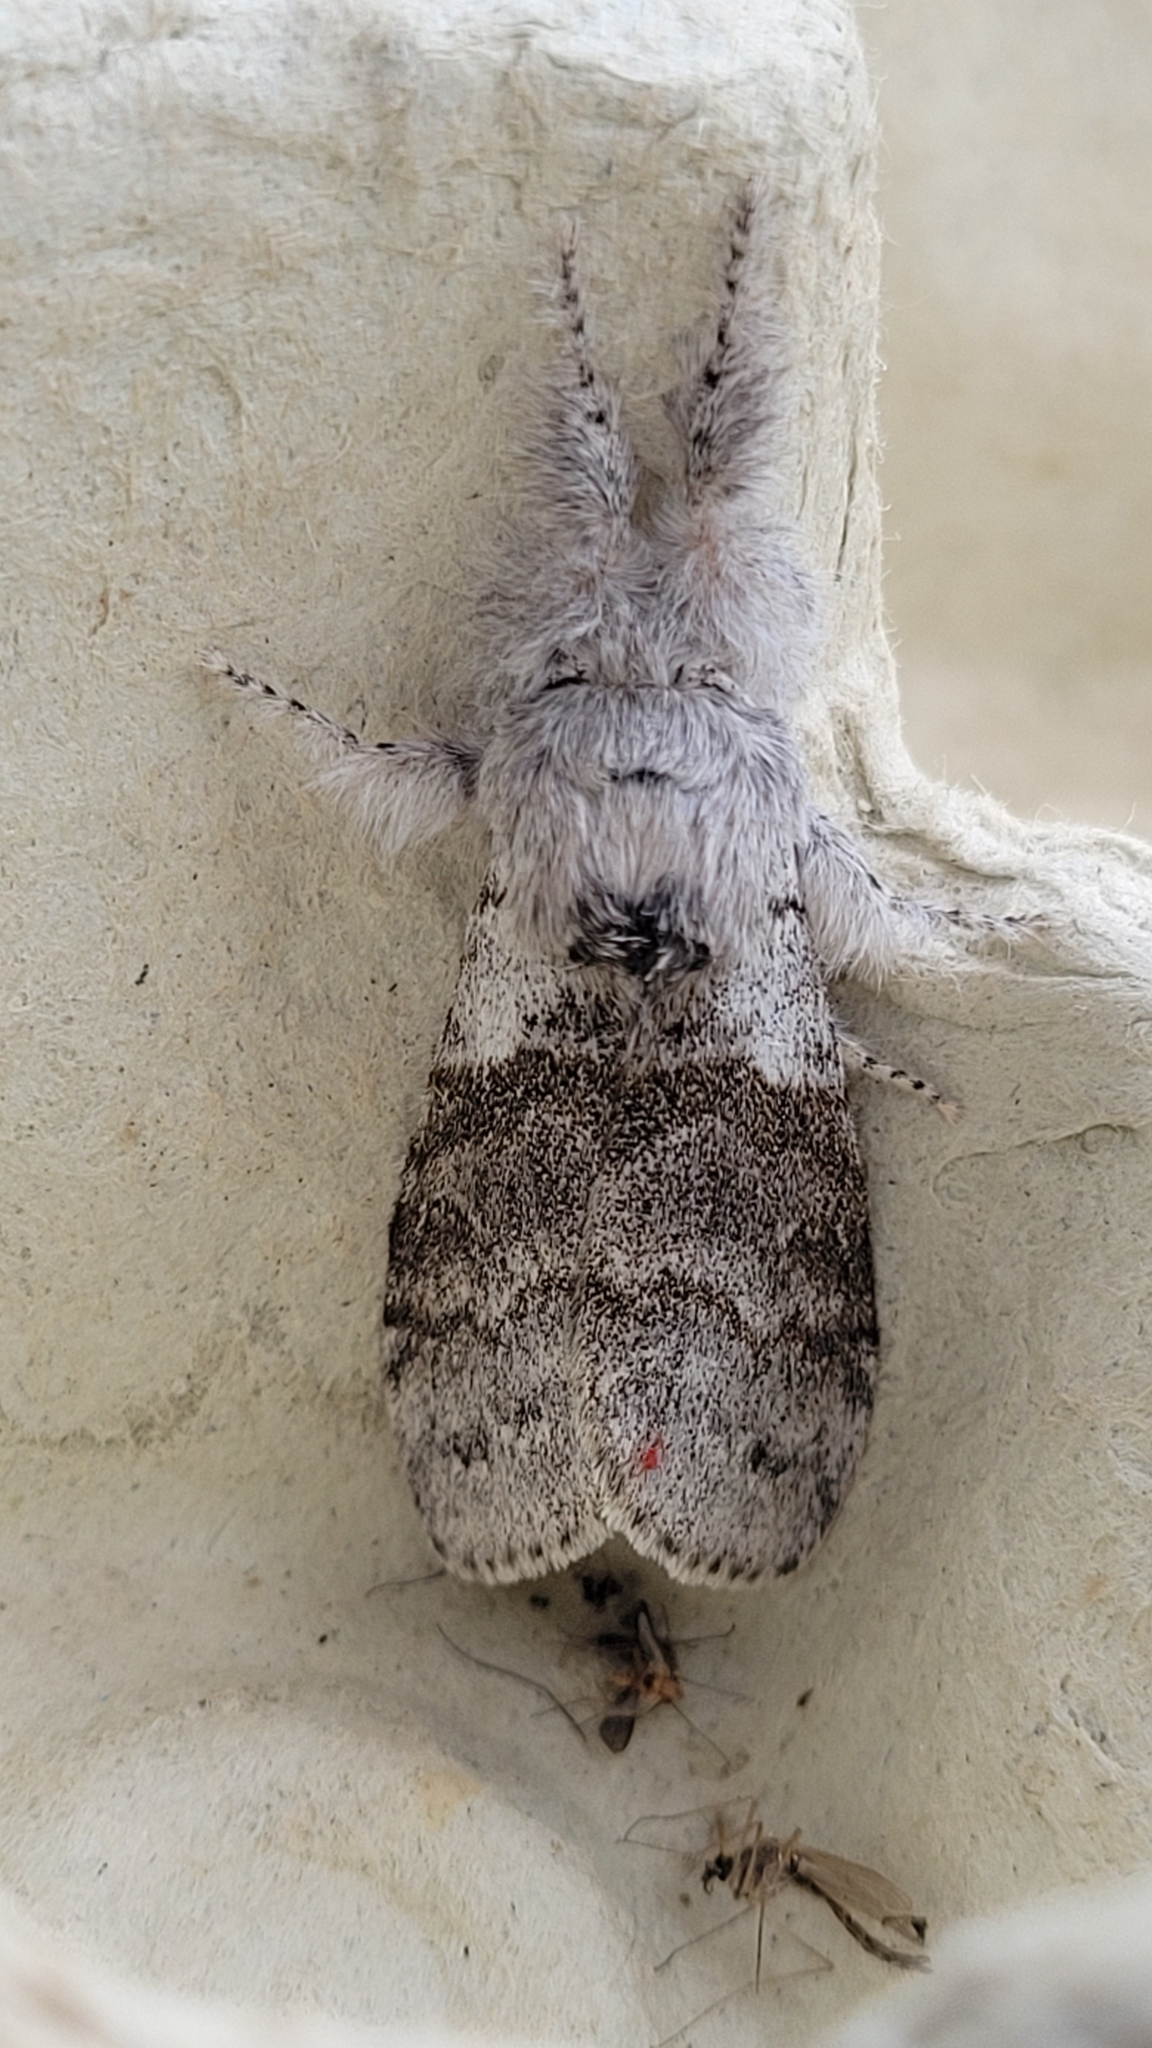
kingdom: Animalia
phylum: Arthropoda
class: Insecta
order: Lepidoptera
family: Erebidae
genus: Calliteara
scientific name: Calliteara pudibunda
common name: Pale tussock
